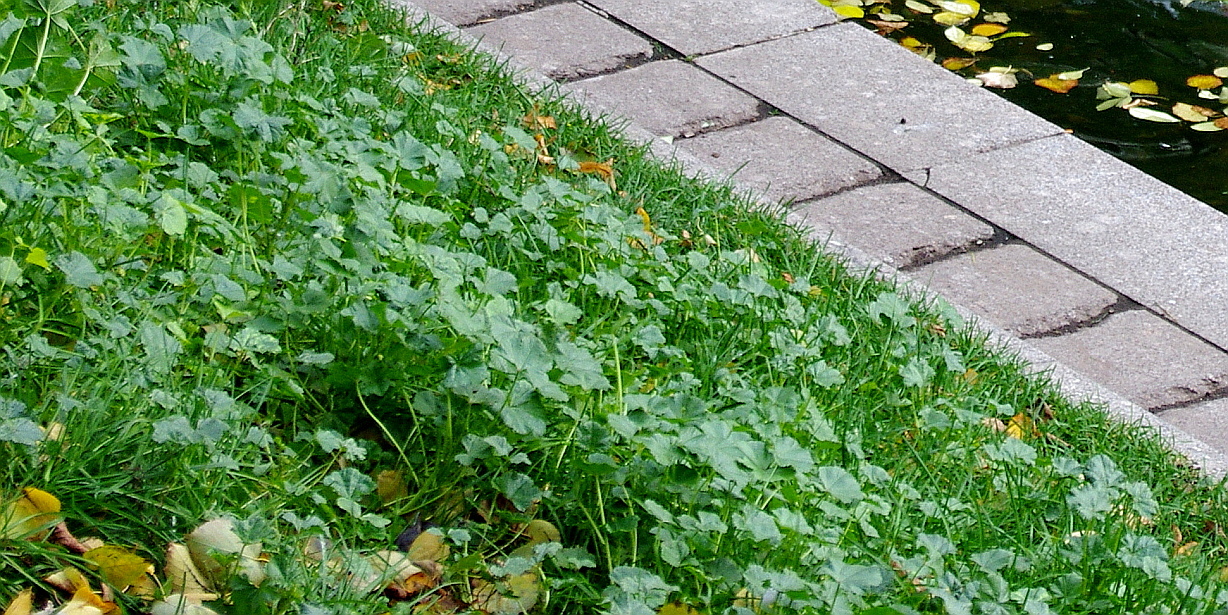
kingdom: Plantae
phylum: Tracheophyta
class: Magnoliopsida
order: Malvales
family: Malvaceae
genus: Malva
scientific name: Malva pusilla
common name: Small mallow
